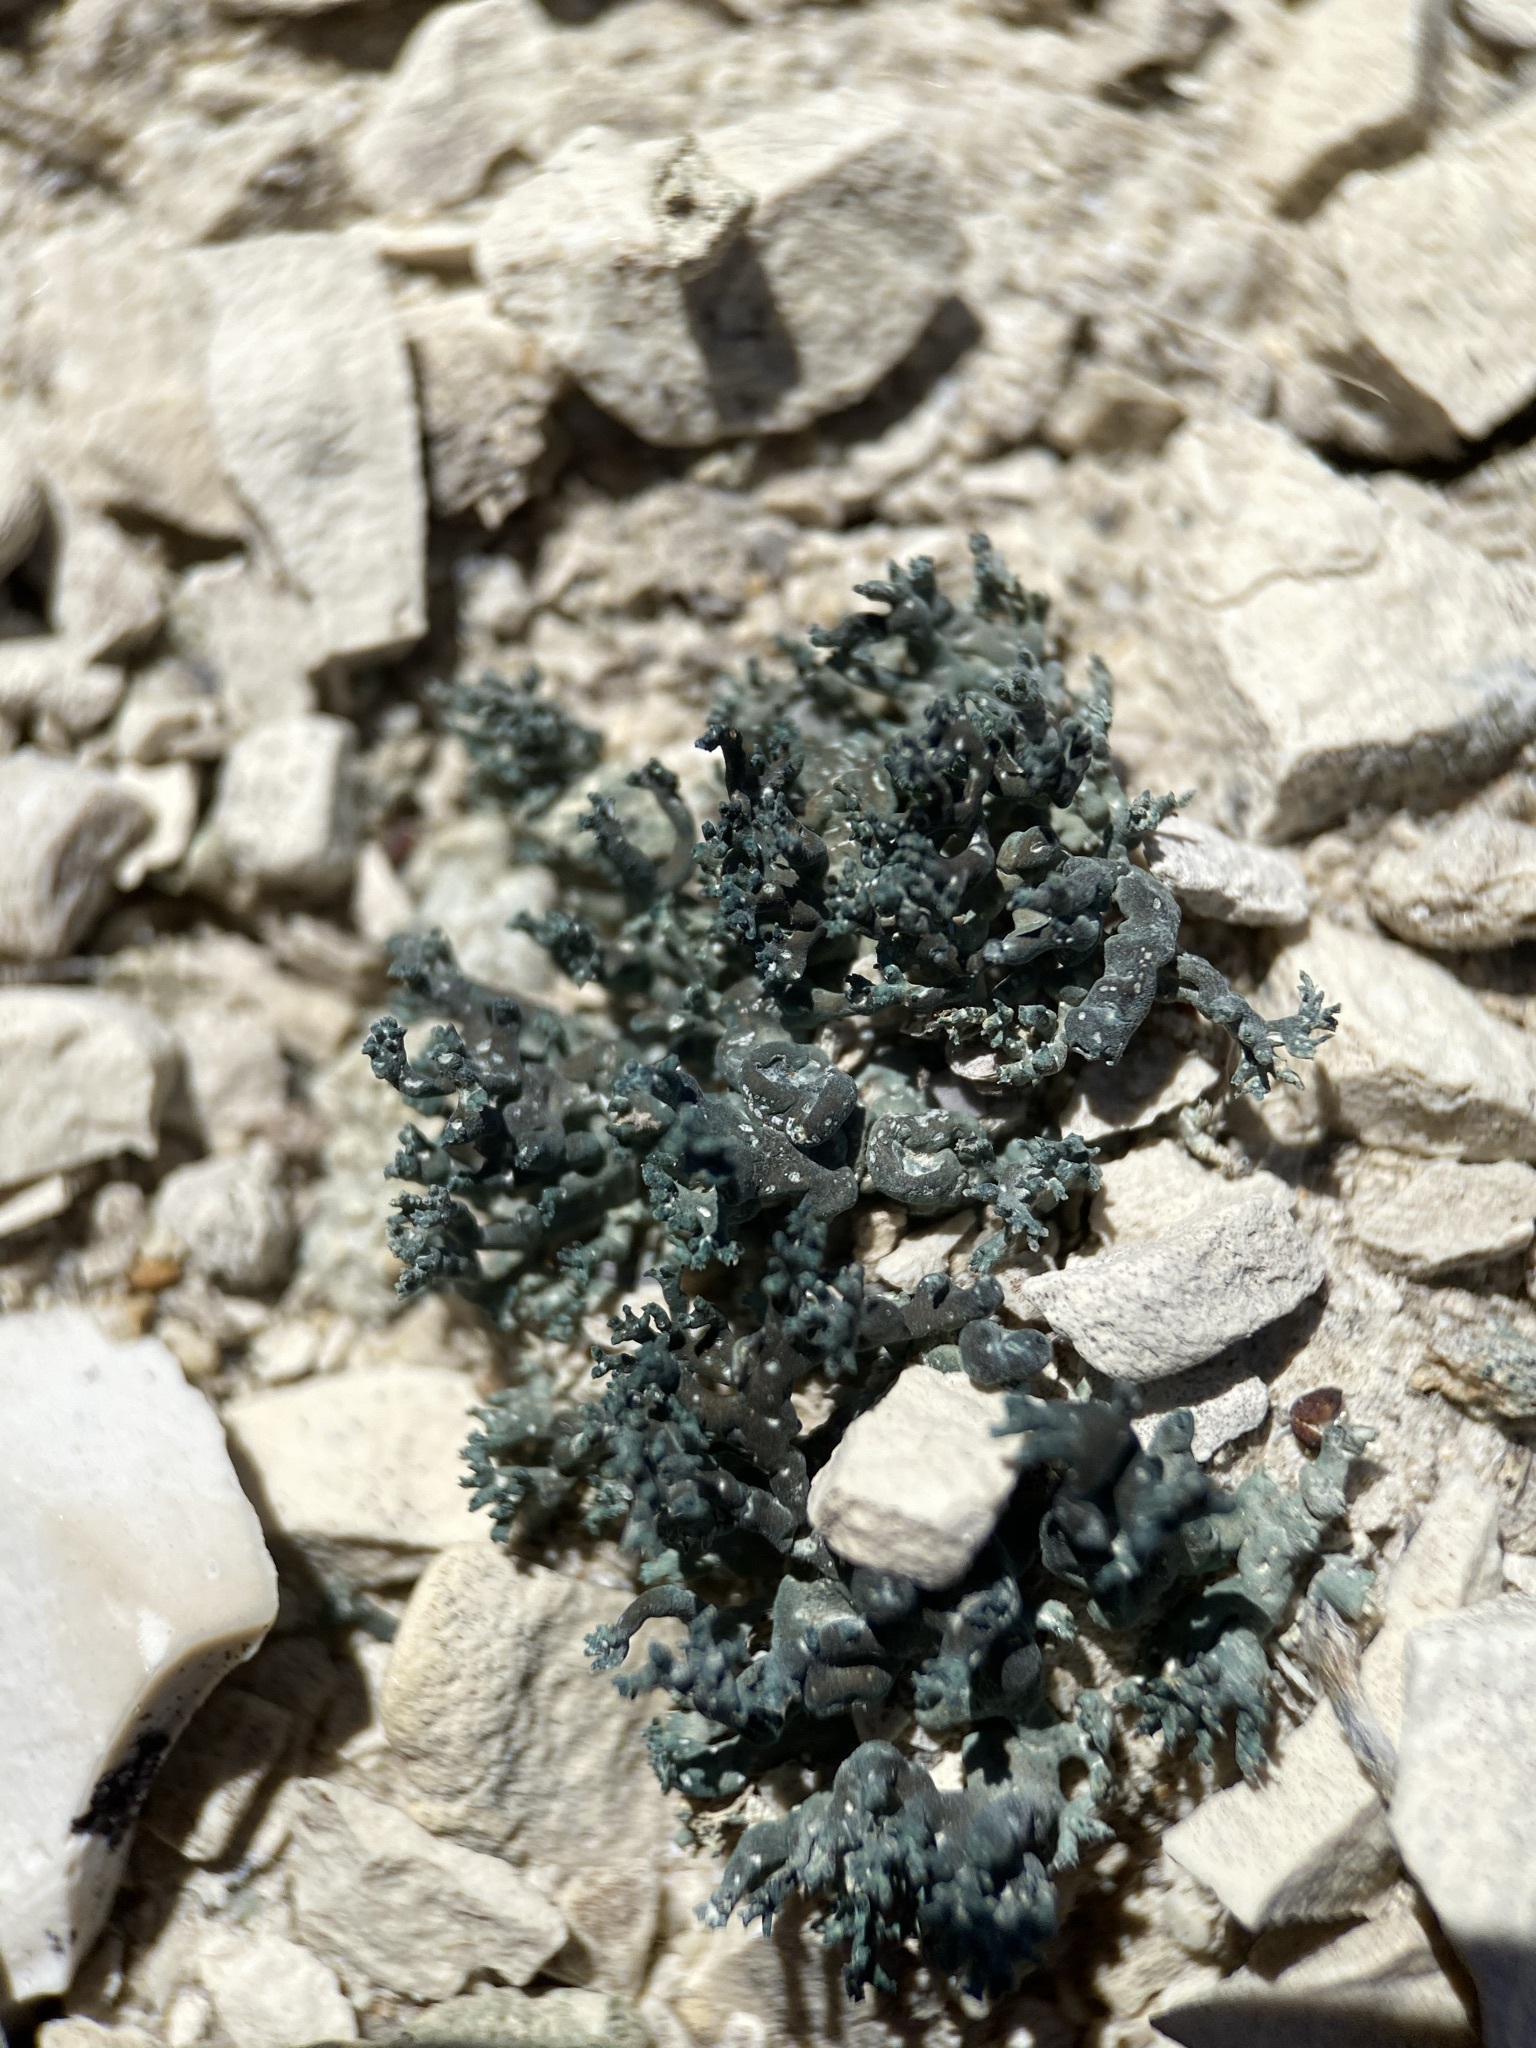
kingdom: Fungi
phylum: Ascomycota
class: Lecanoromycetes
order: Pertusariales
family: Megasporaceae
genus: Circinaria
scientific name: Circinaria hispida
